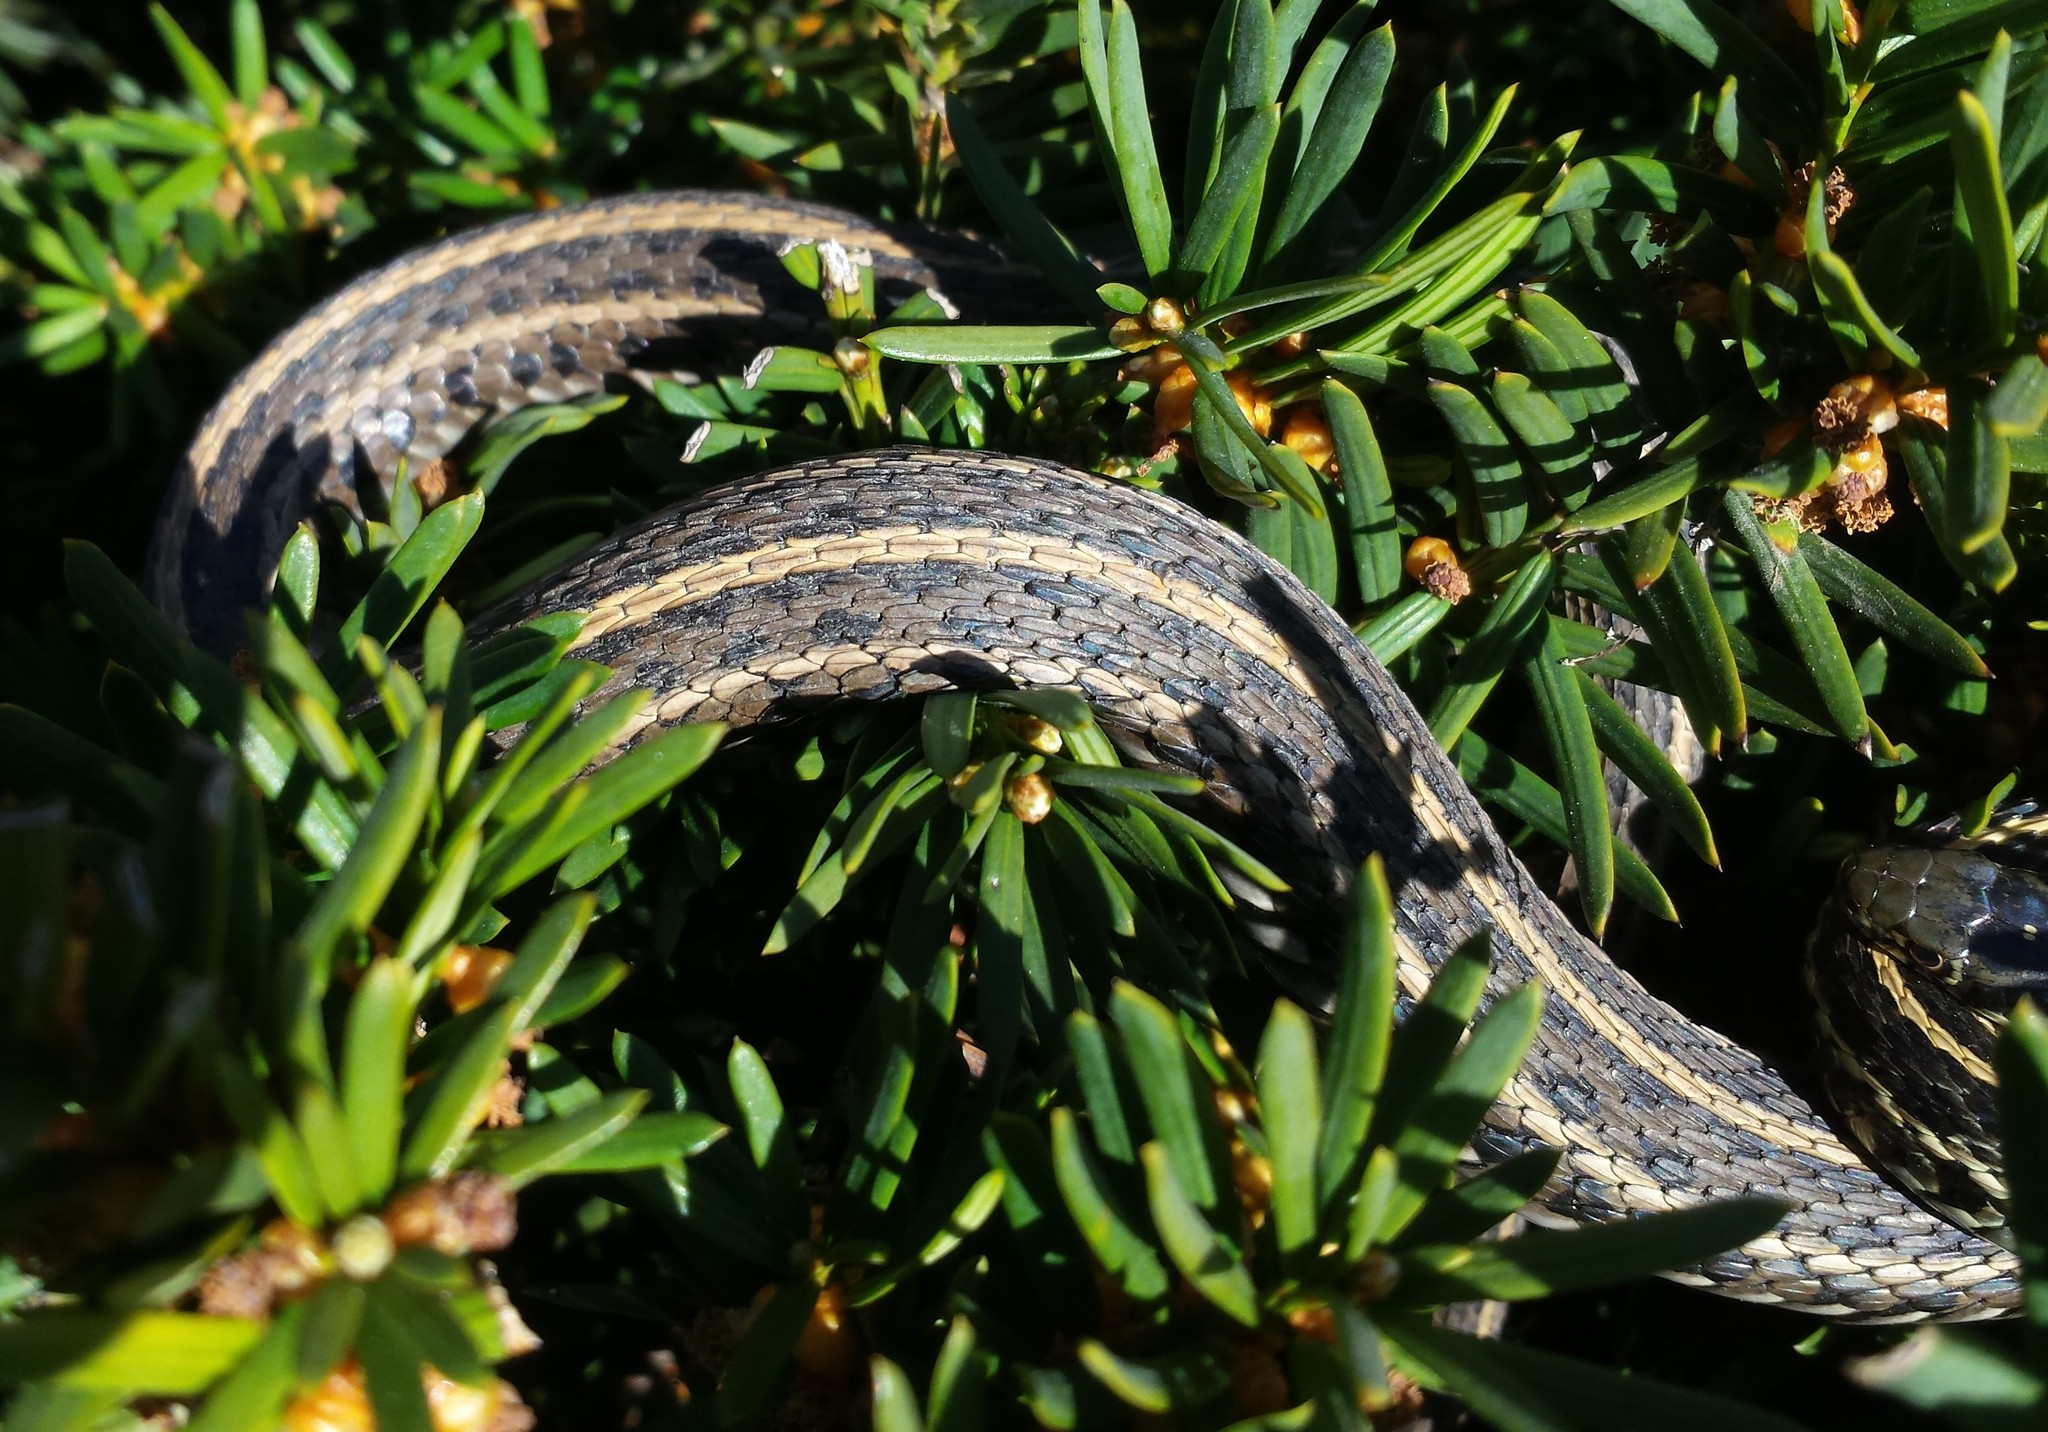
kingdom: Animalia
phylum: Chordata
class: Squamata
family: Colubridae
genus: Thamnophis
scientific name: Thamnophis radix
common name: Plains garter snake
